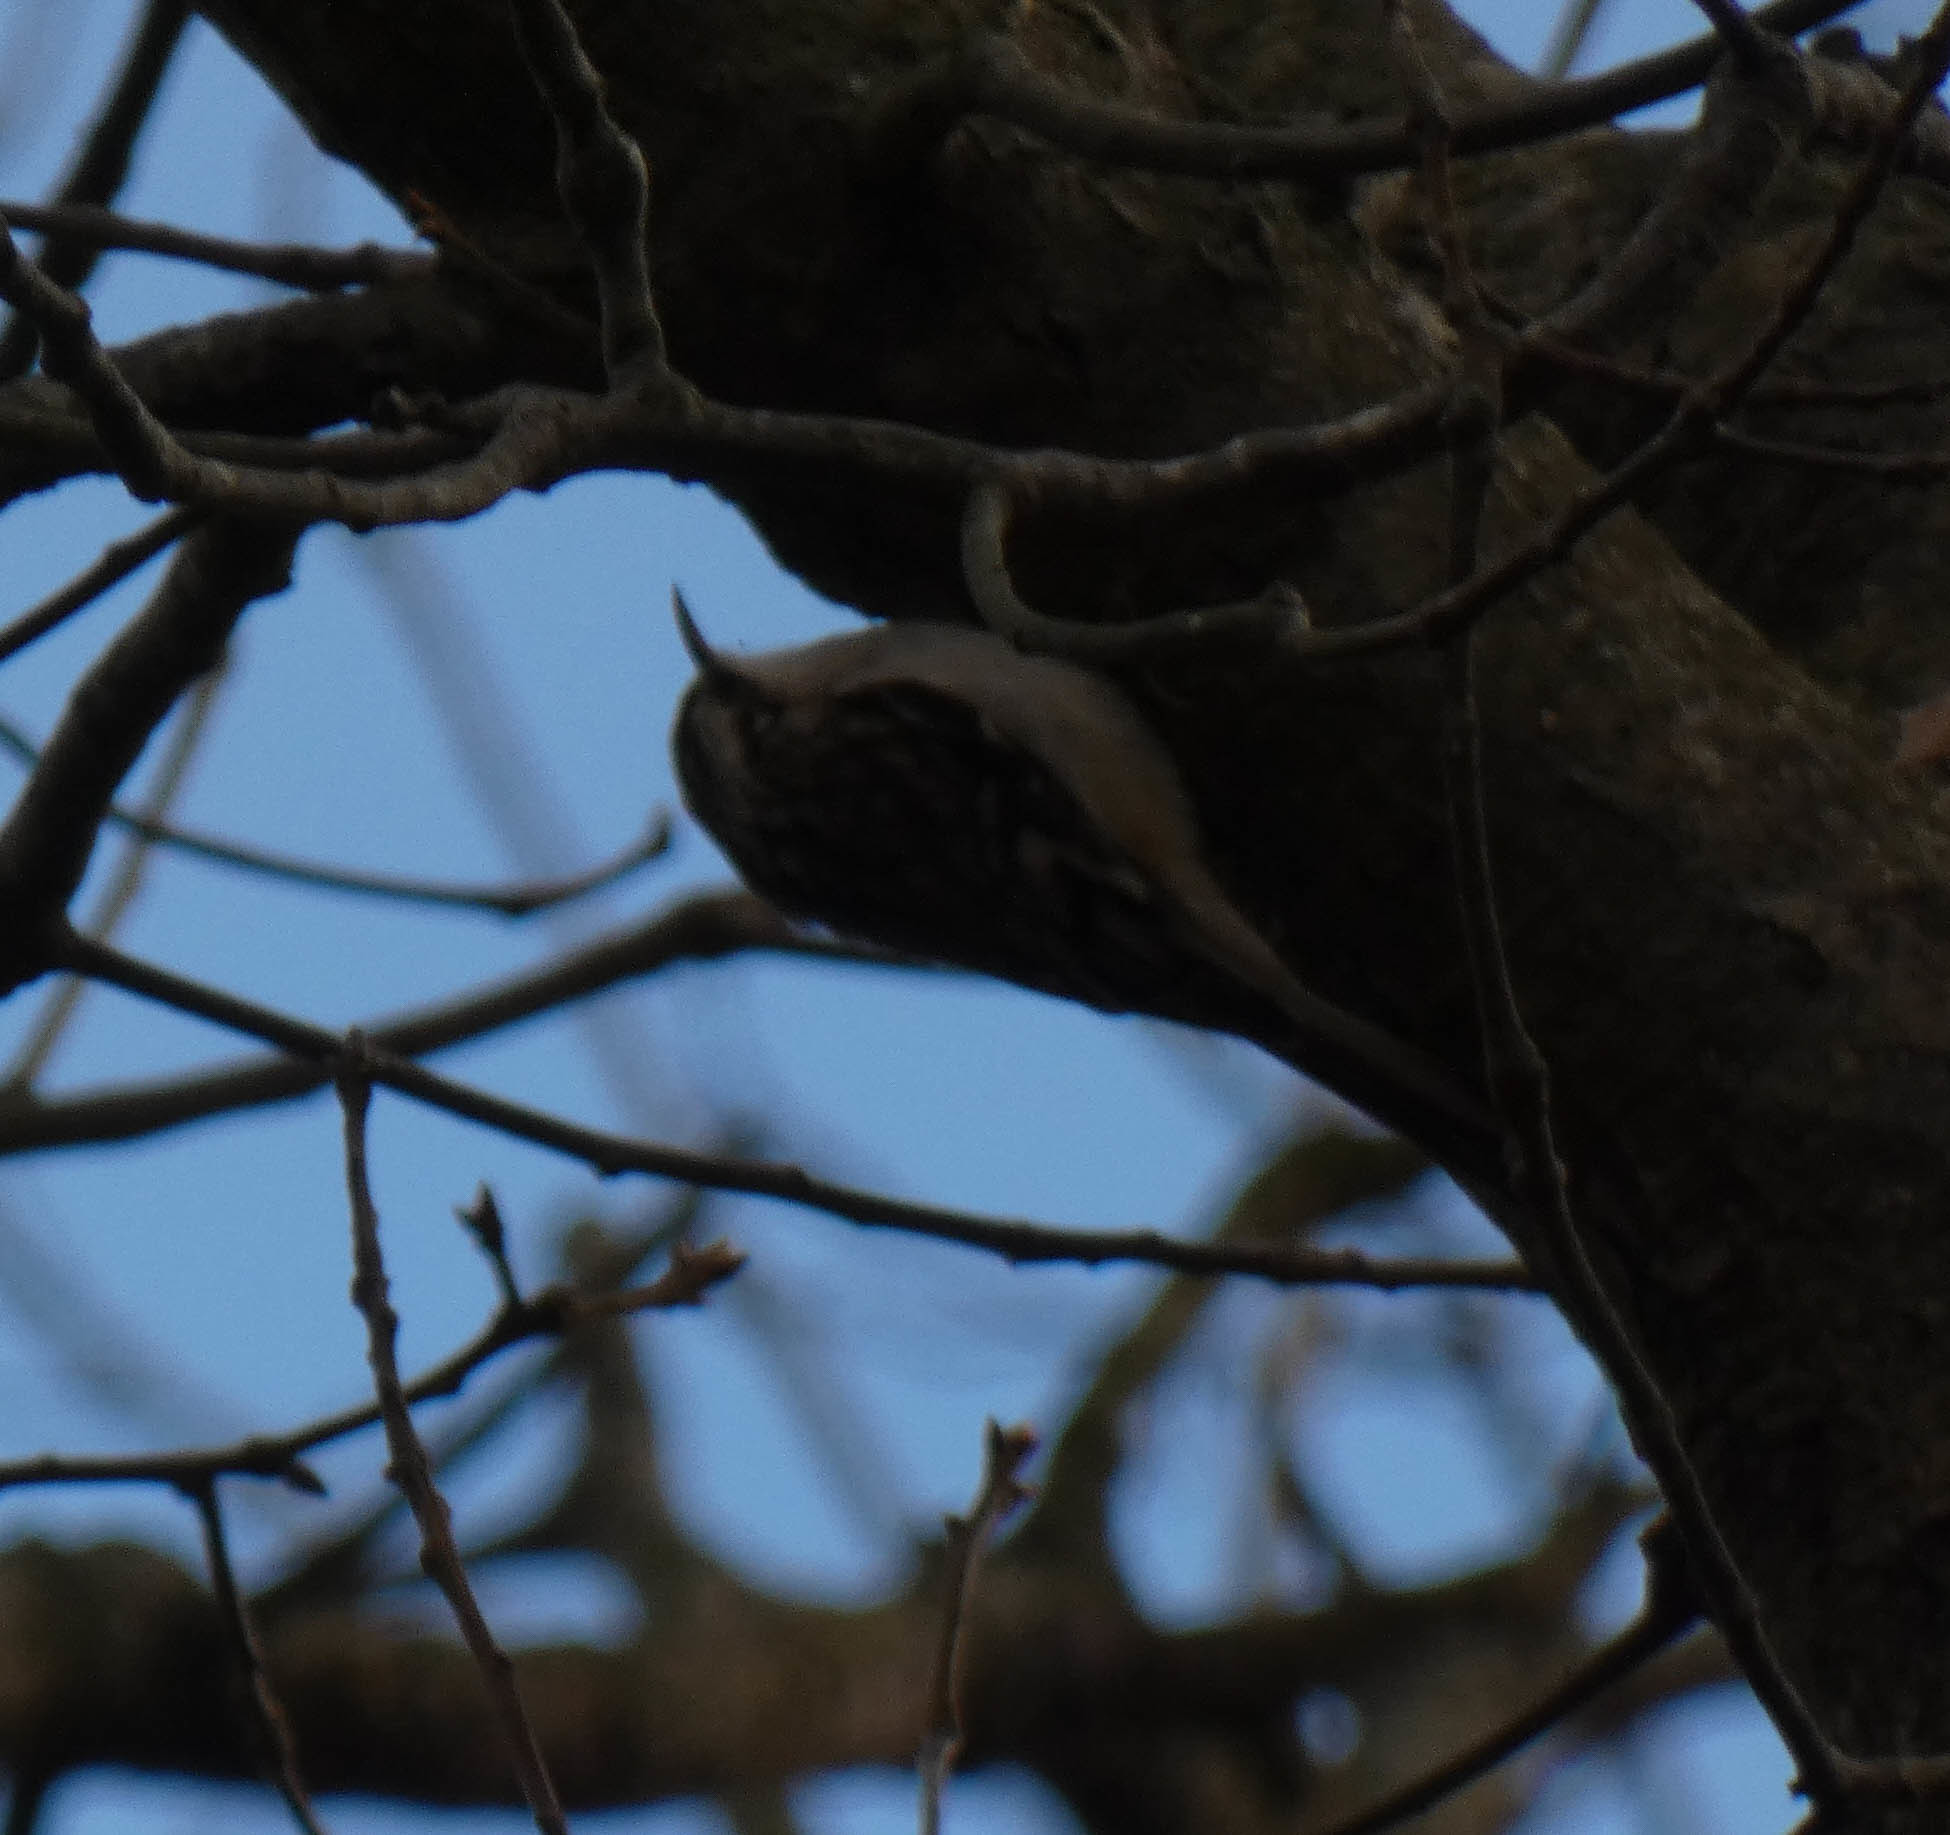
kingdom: Animalia
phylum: Chordata
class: Aves
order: Passeriformes
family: Certhiidae
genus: Certhia
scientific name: Certhia americana
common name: Brown creeper
